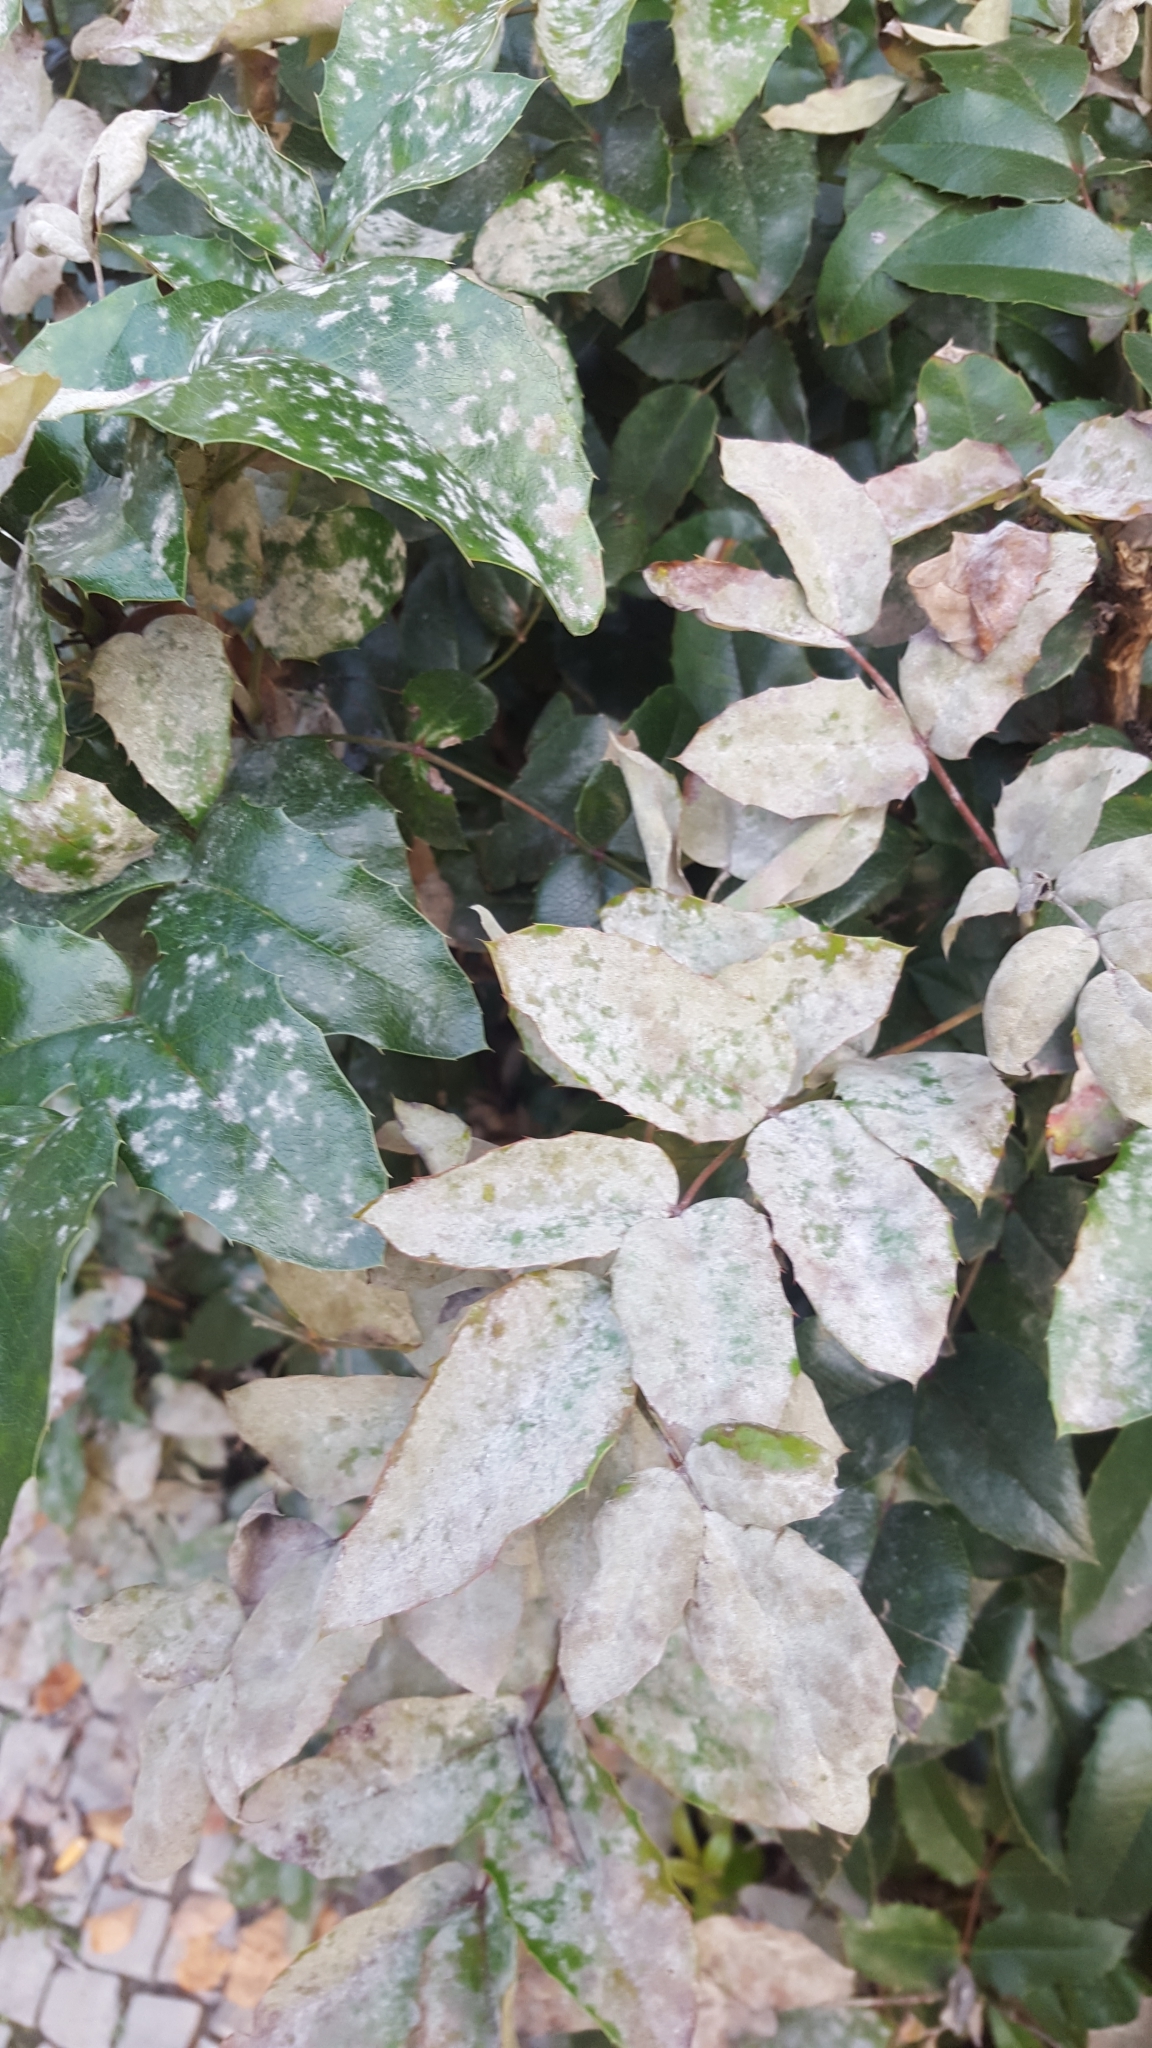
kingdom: Fungi
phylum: Ascomycota
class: Leotiomycetes
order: Helotiales
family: Erysiphaceae
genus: Erysiphe
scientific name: Erysiphe berberidis
